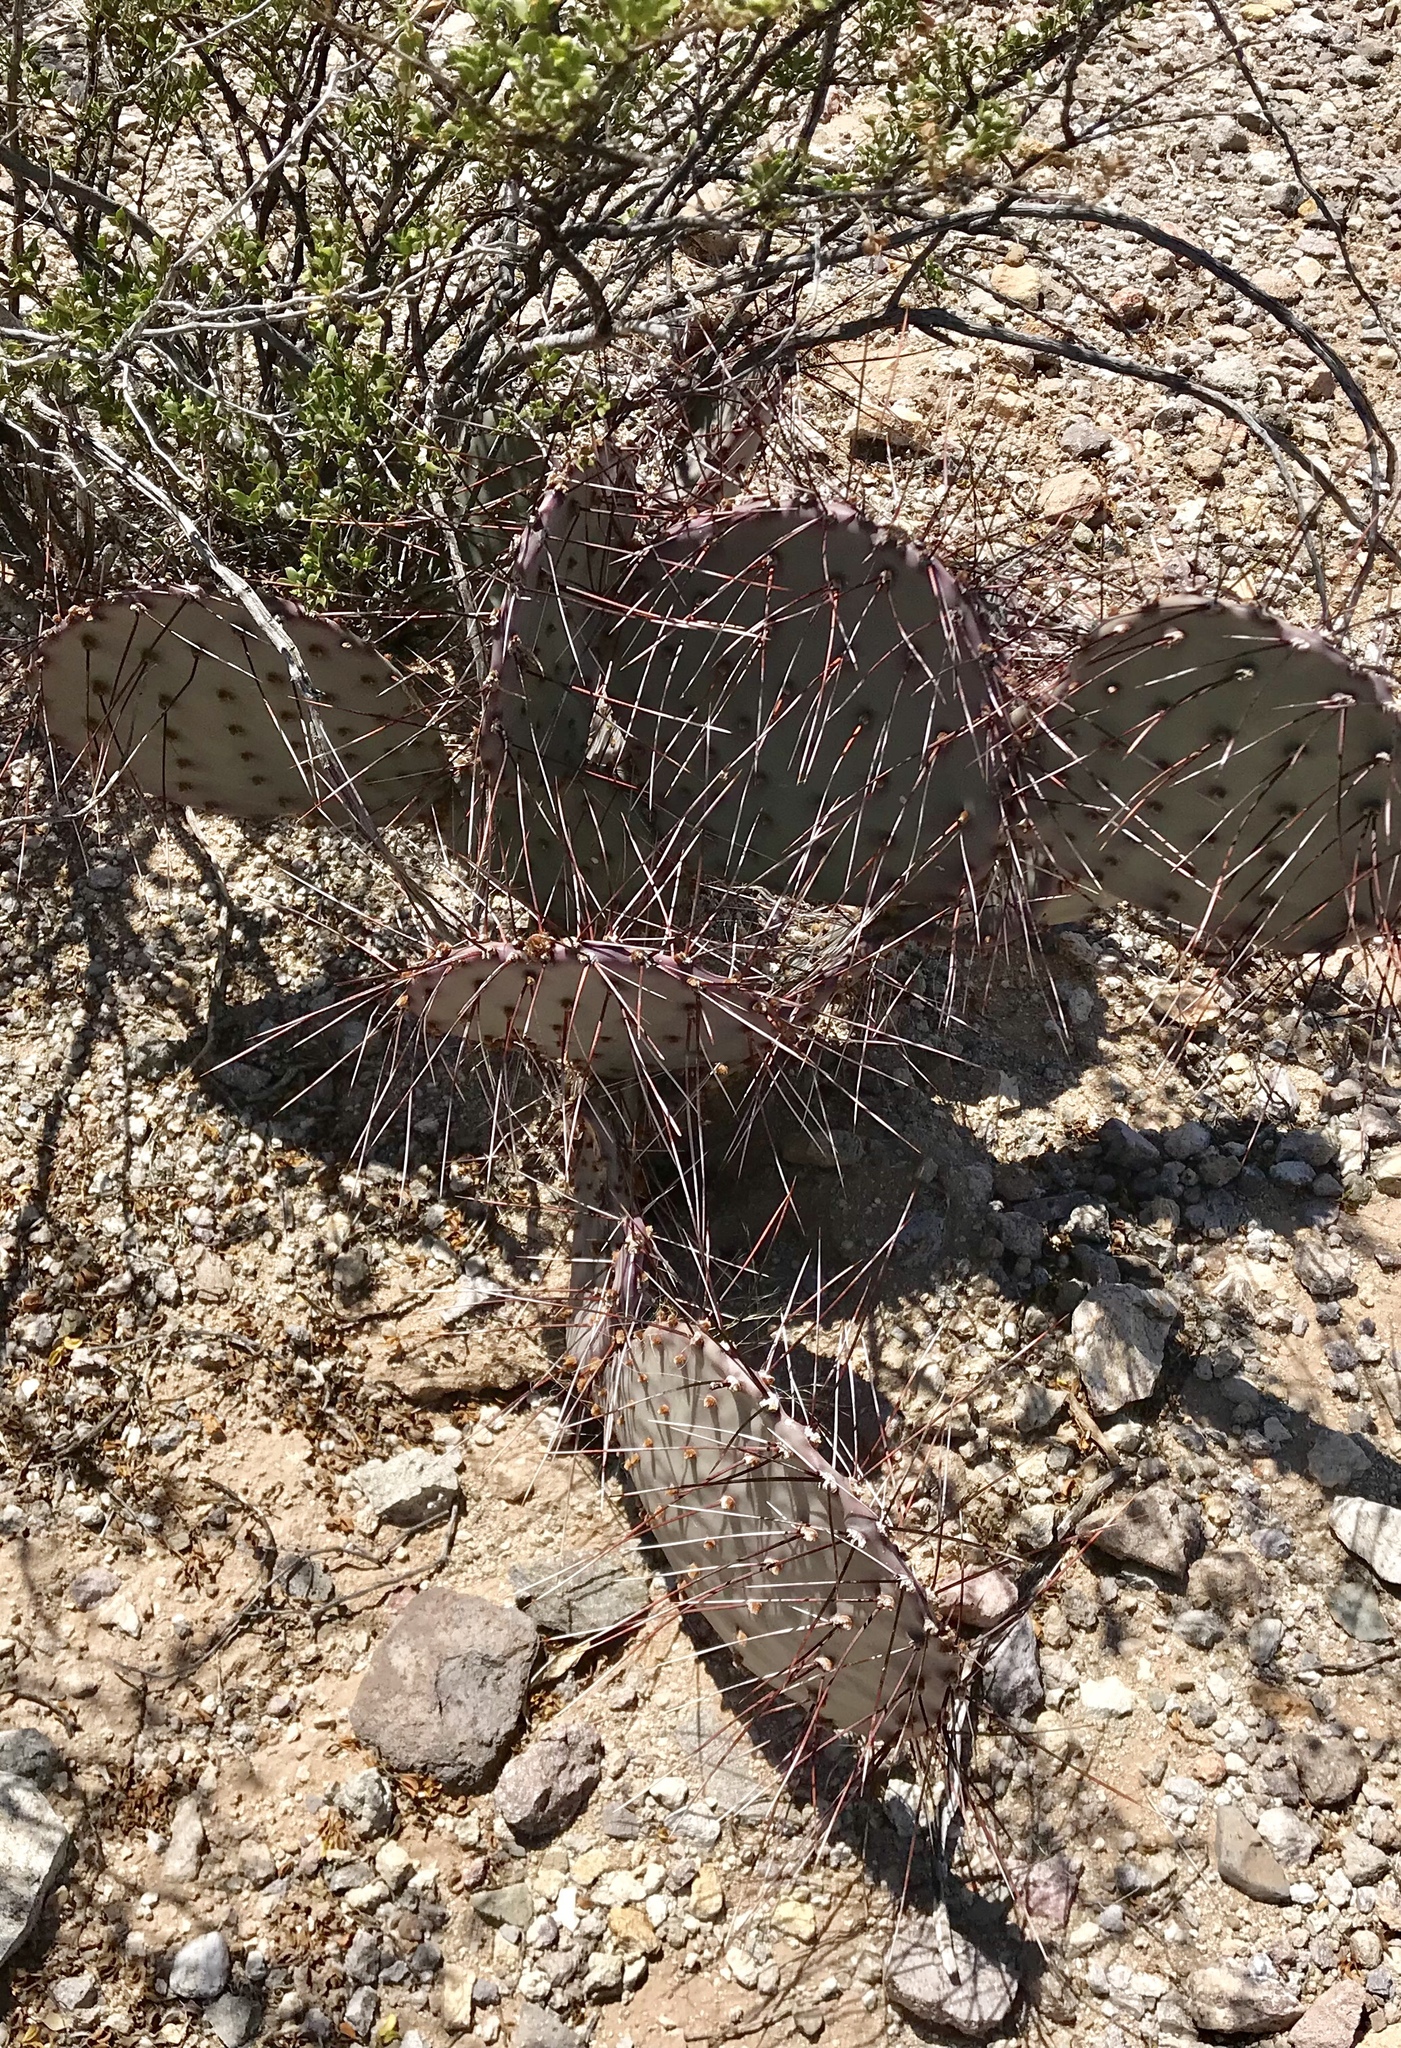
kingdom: Plantae
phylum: Tracheophyta
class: Magnoliopsida
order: Caryophyllales
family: Cactaceae
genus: Opuntia
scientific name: Opuntia macrocentra
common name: Purple prickly-pear
